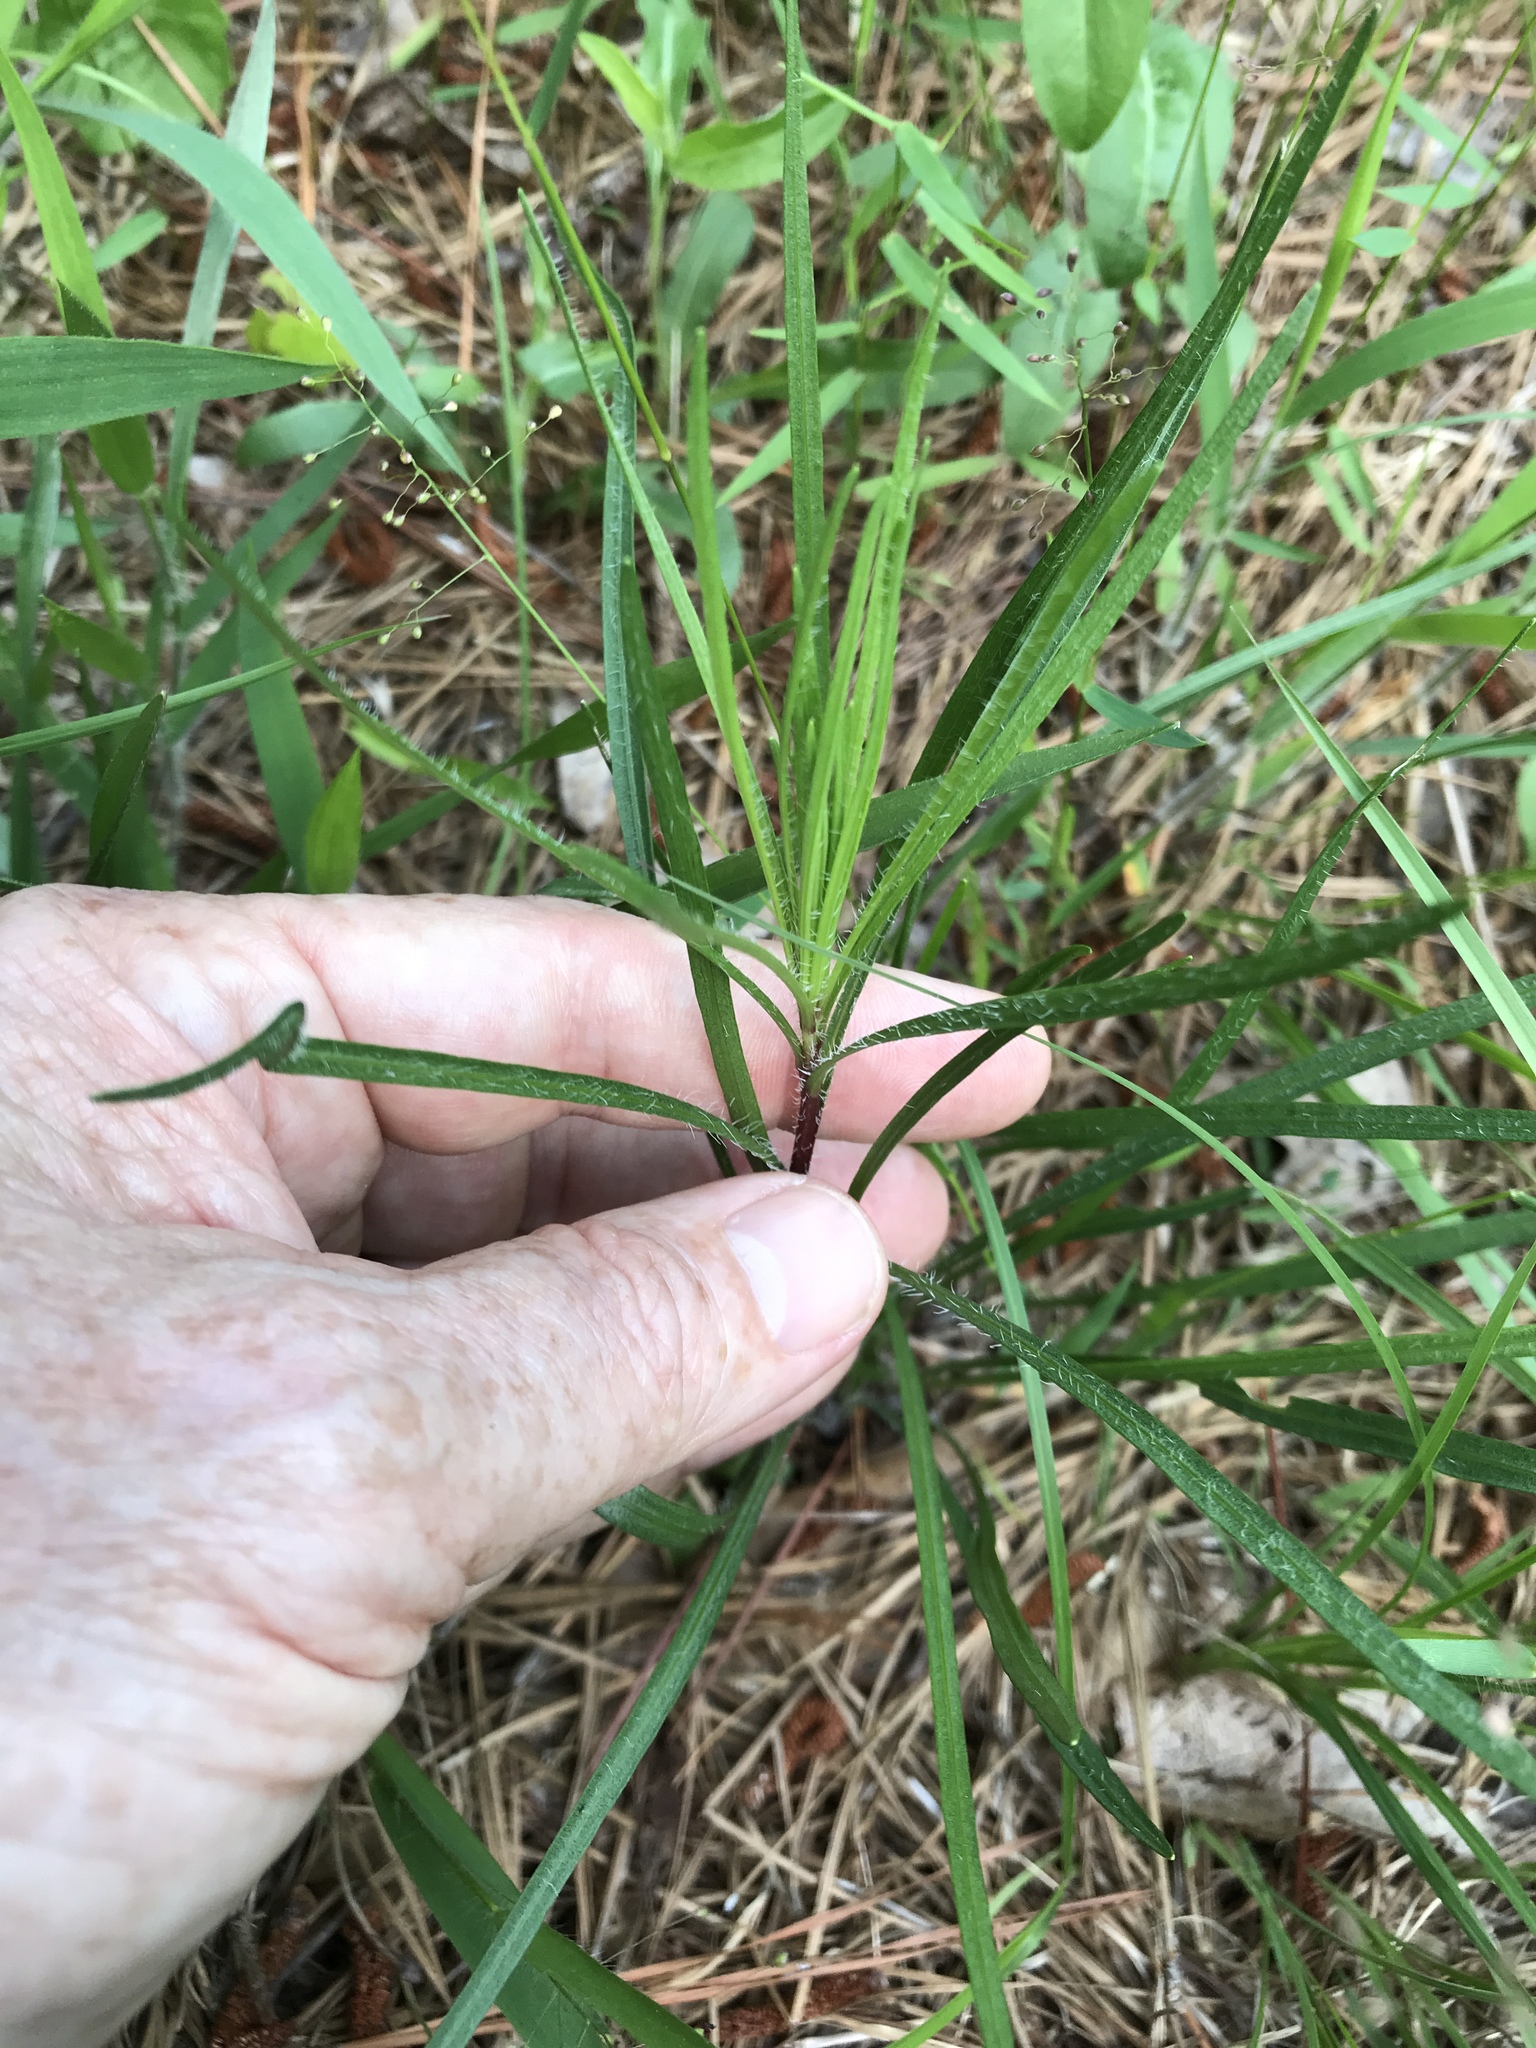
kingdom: Plantae
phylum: Tracheophyta
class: Magnoliopsida
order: Asterales
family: Asteraceae
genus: Liatris
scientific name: Liatris pilosa
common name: Grass-leaf gayfeather
